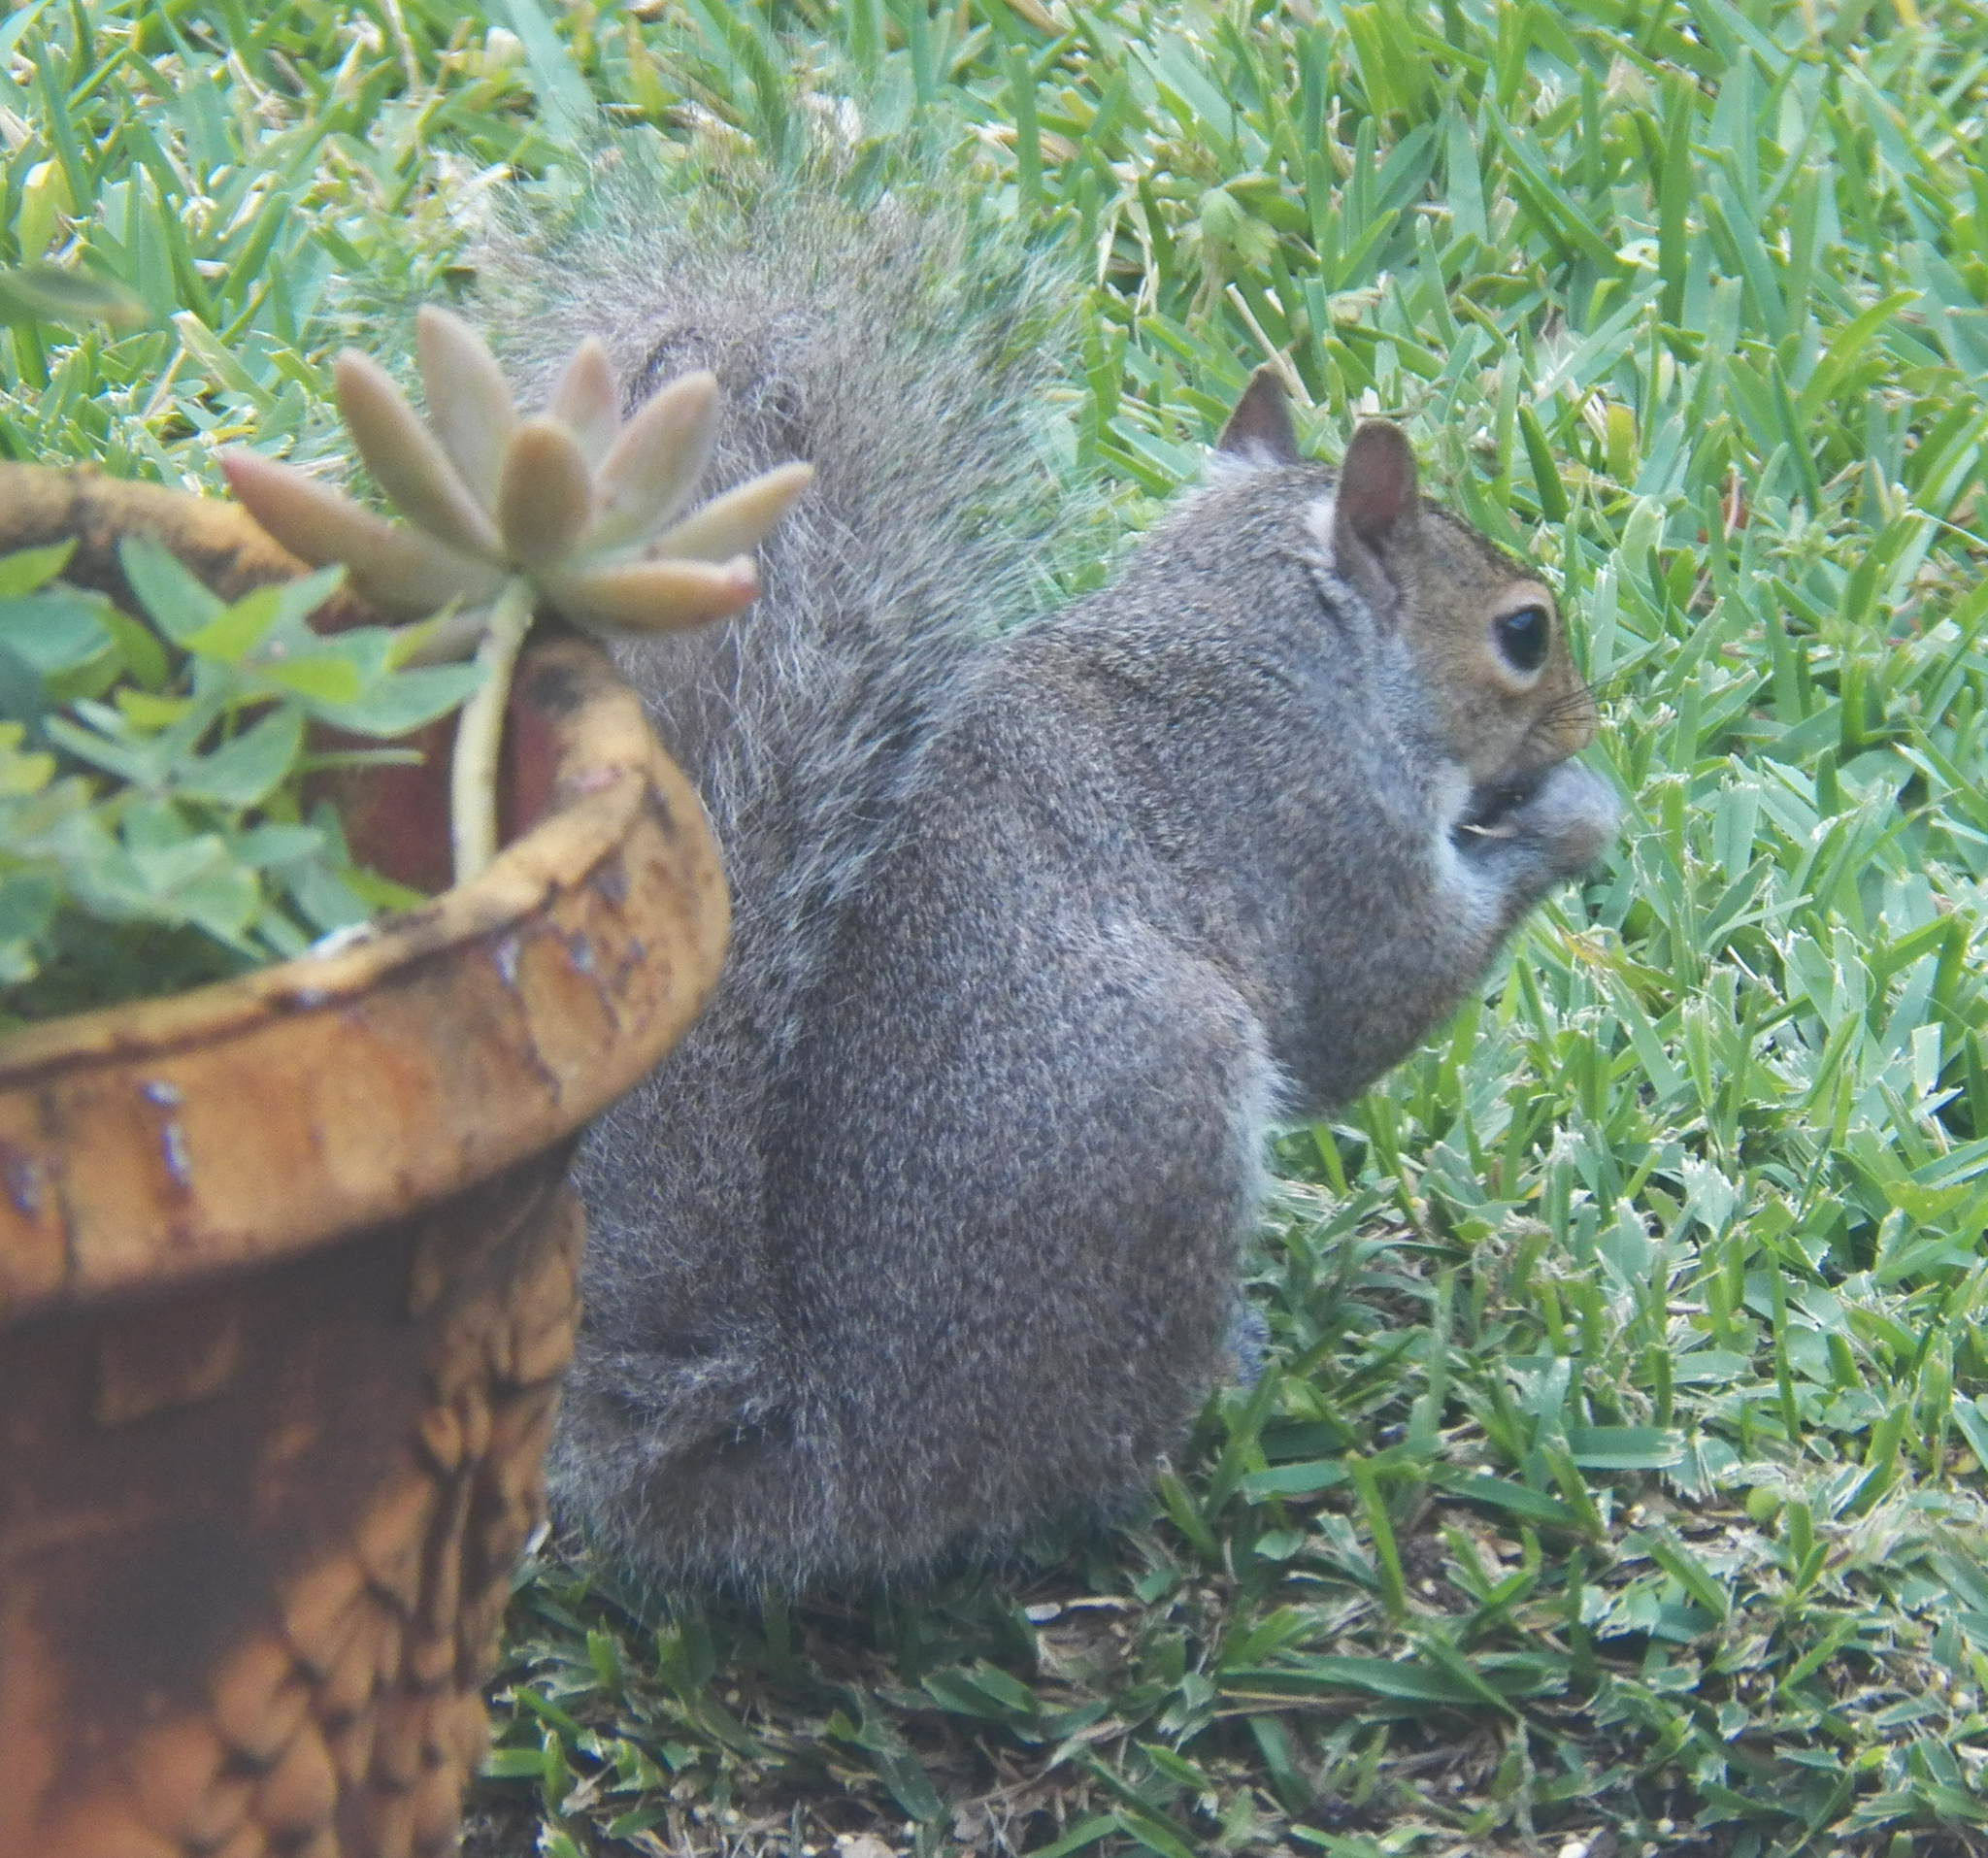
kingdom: Animalia
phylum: Chordata
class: Mammalia
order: Rodentia
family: Sciuridae
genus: Sciurus
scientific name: Sciurus carolinensis
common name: Eastern gray squirrel
